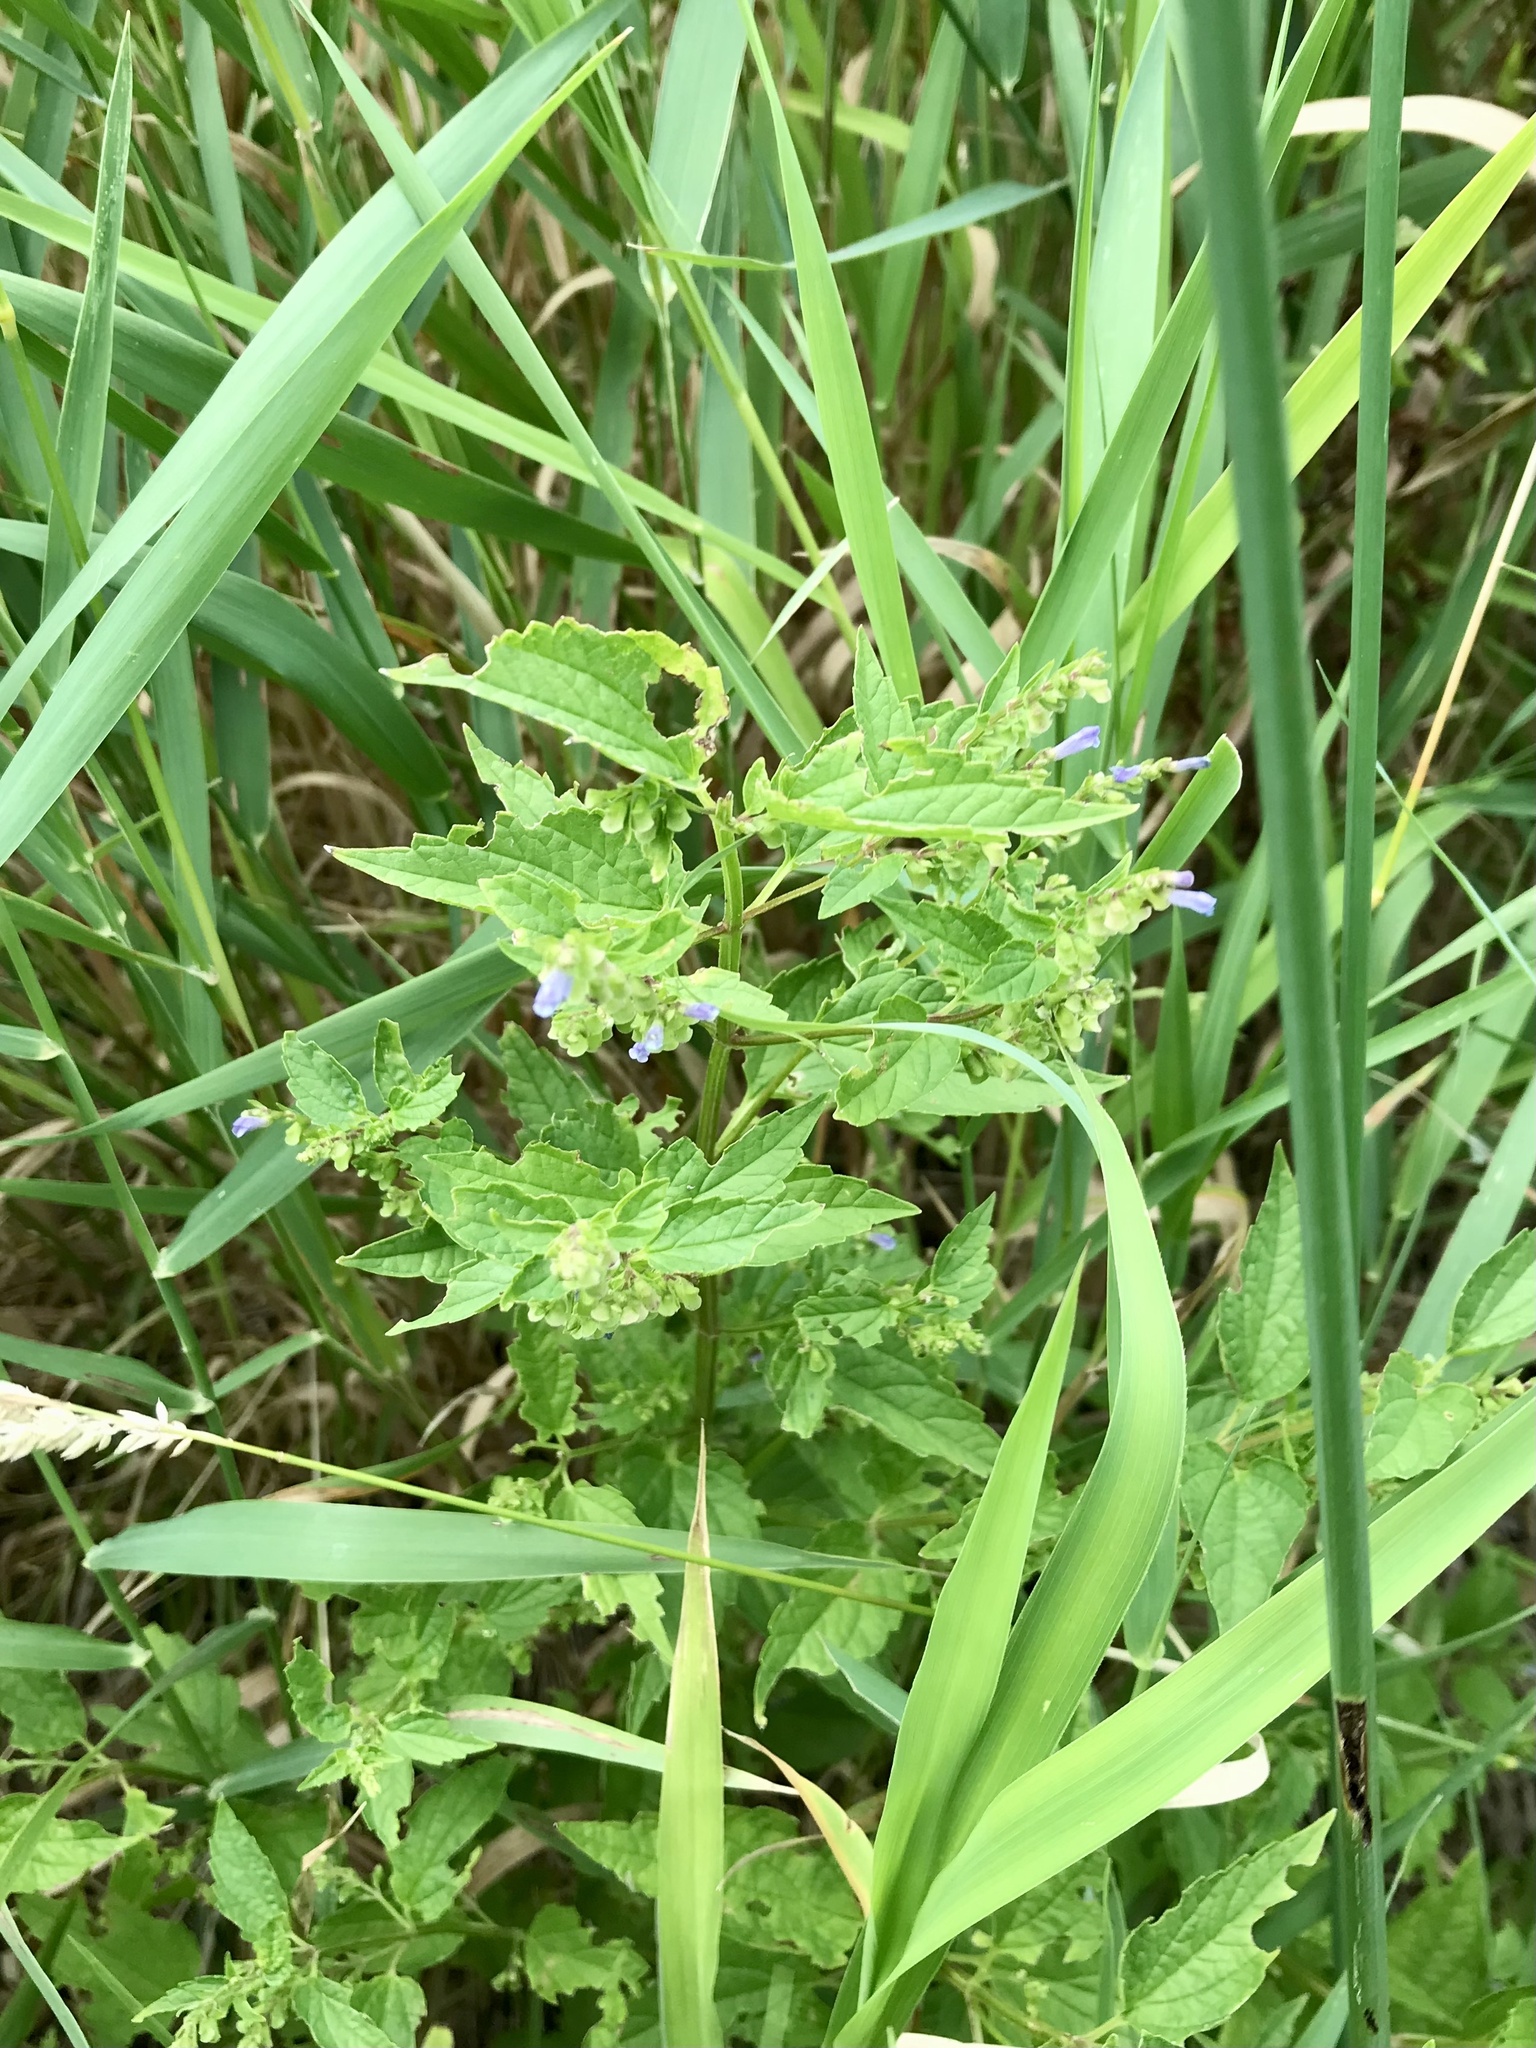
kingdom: Plantae
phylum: Tracheophyta
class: Magnoliopsida
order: Lamiales
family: Lamiaceae
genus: Scutellaria
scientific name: Scutellaria lateriflora
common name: Blue skullcap
